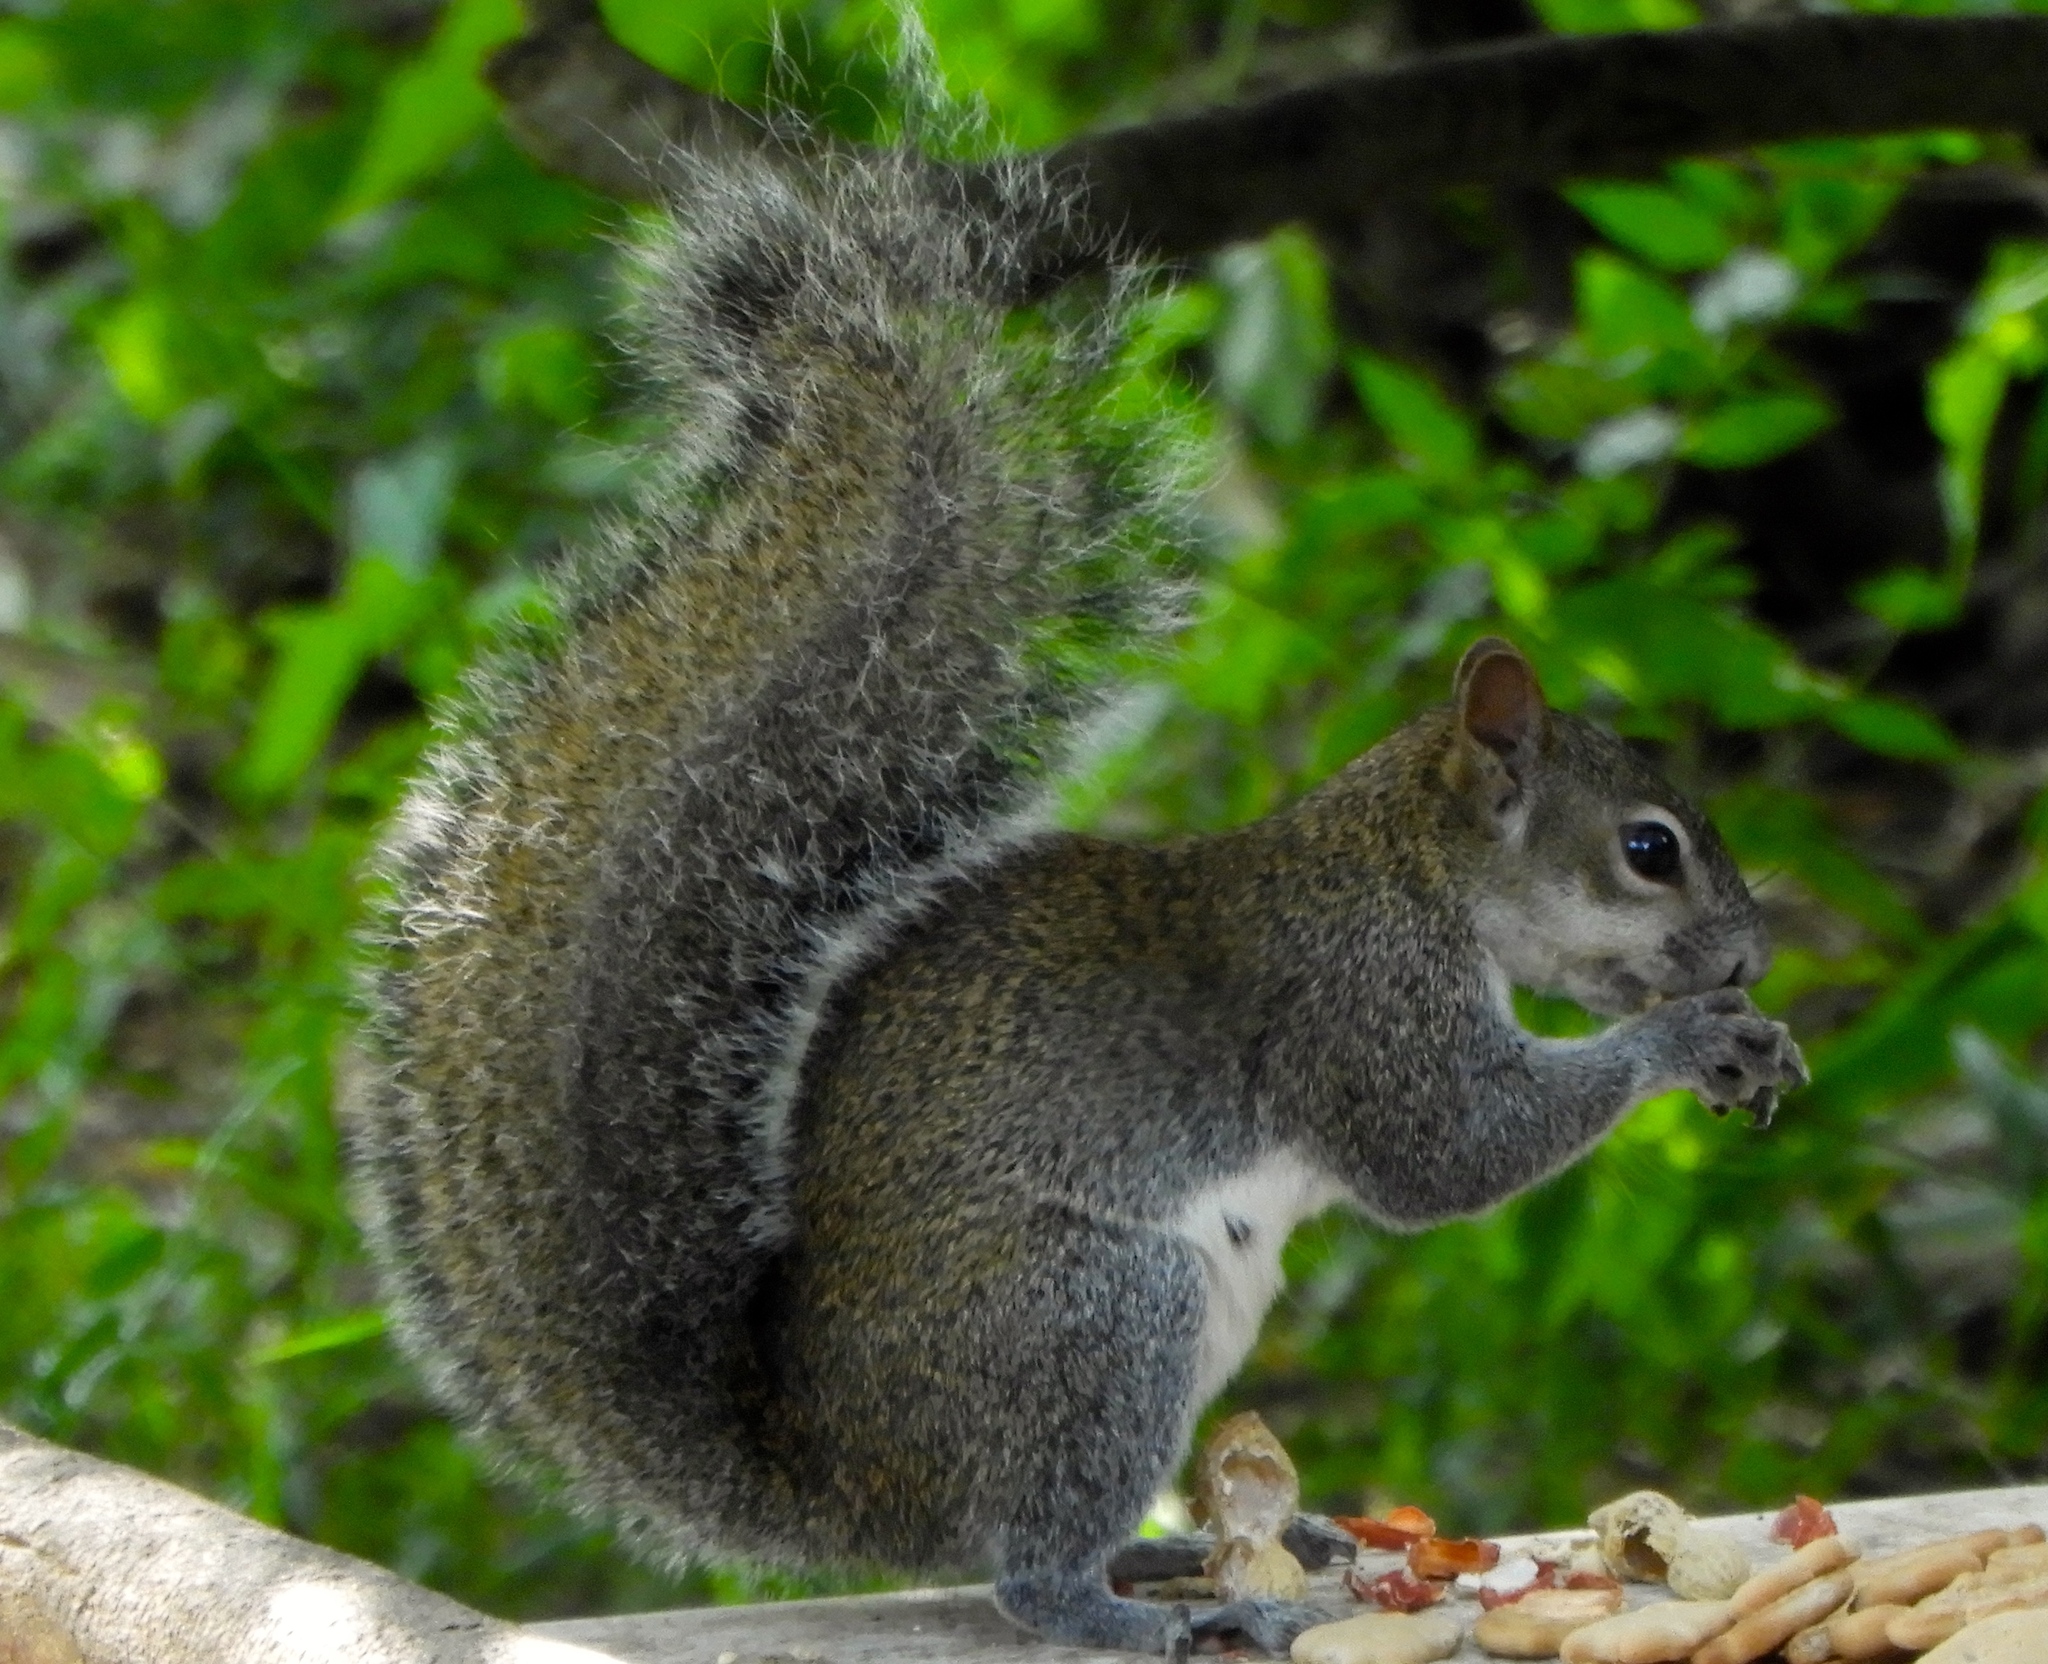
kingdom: Animalia
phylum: Chordata
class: Mammalia
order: Rodentia
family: Sciuridae
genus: Sciurus
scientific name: Sciurus colliaei
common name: Collie's squirrel
